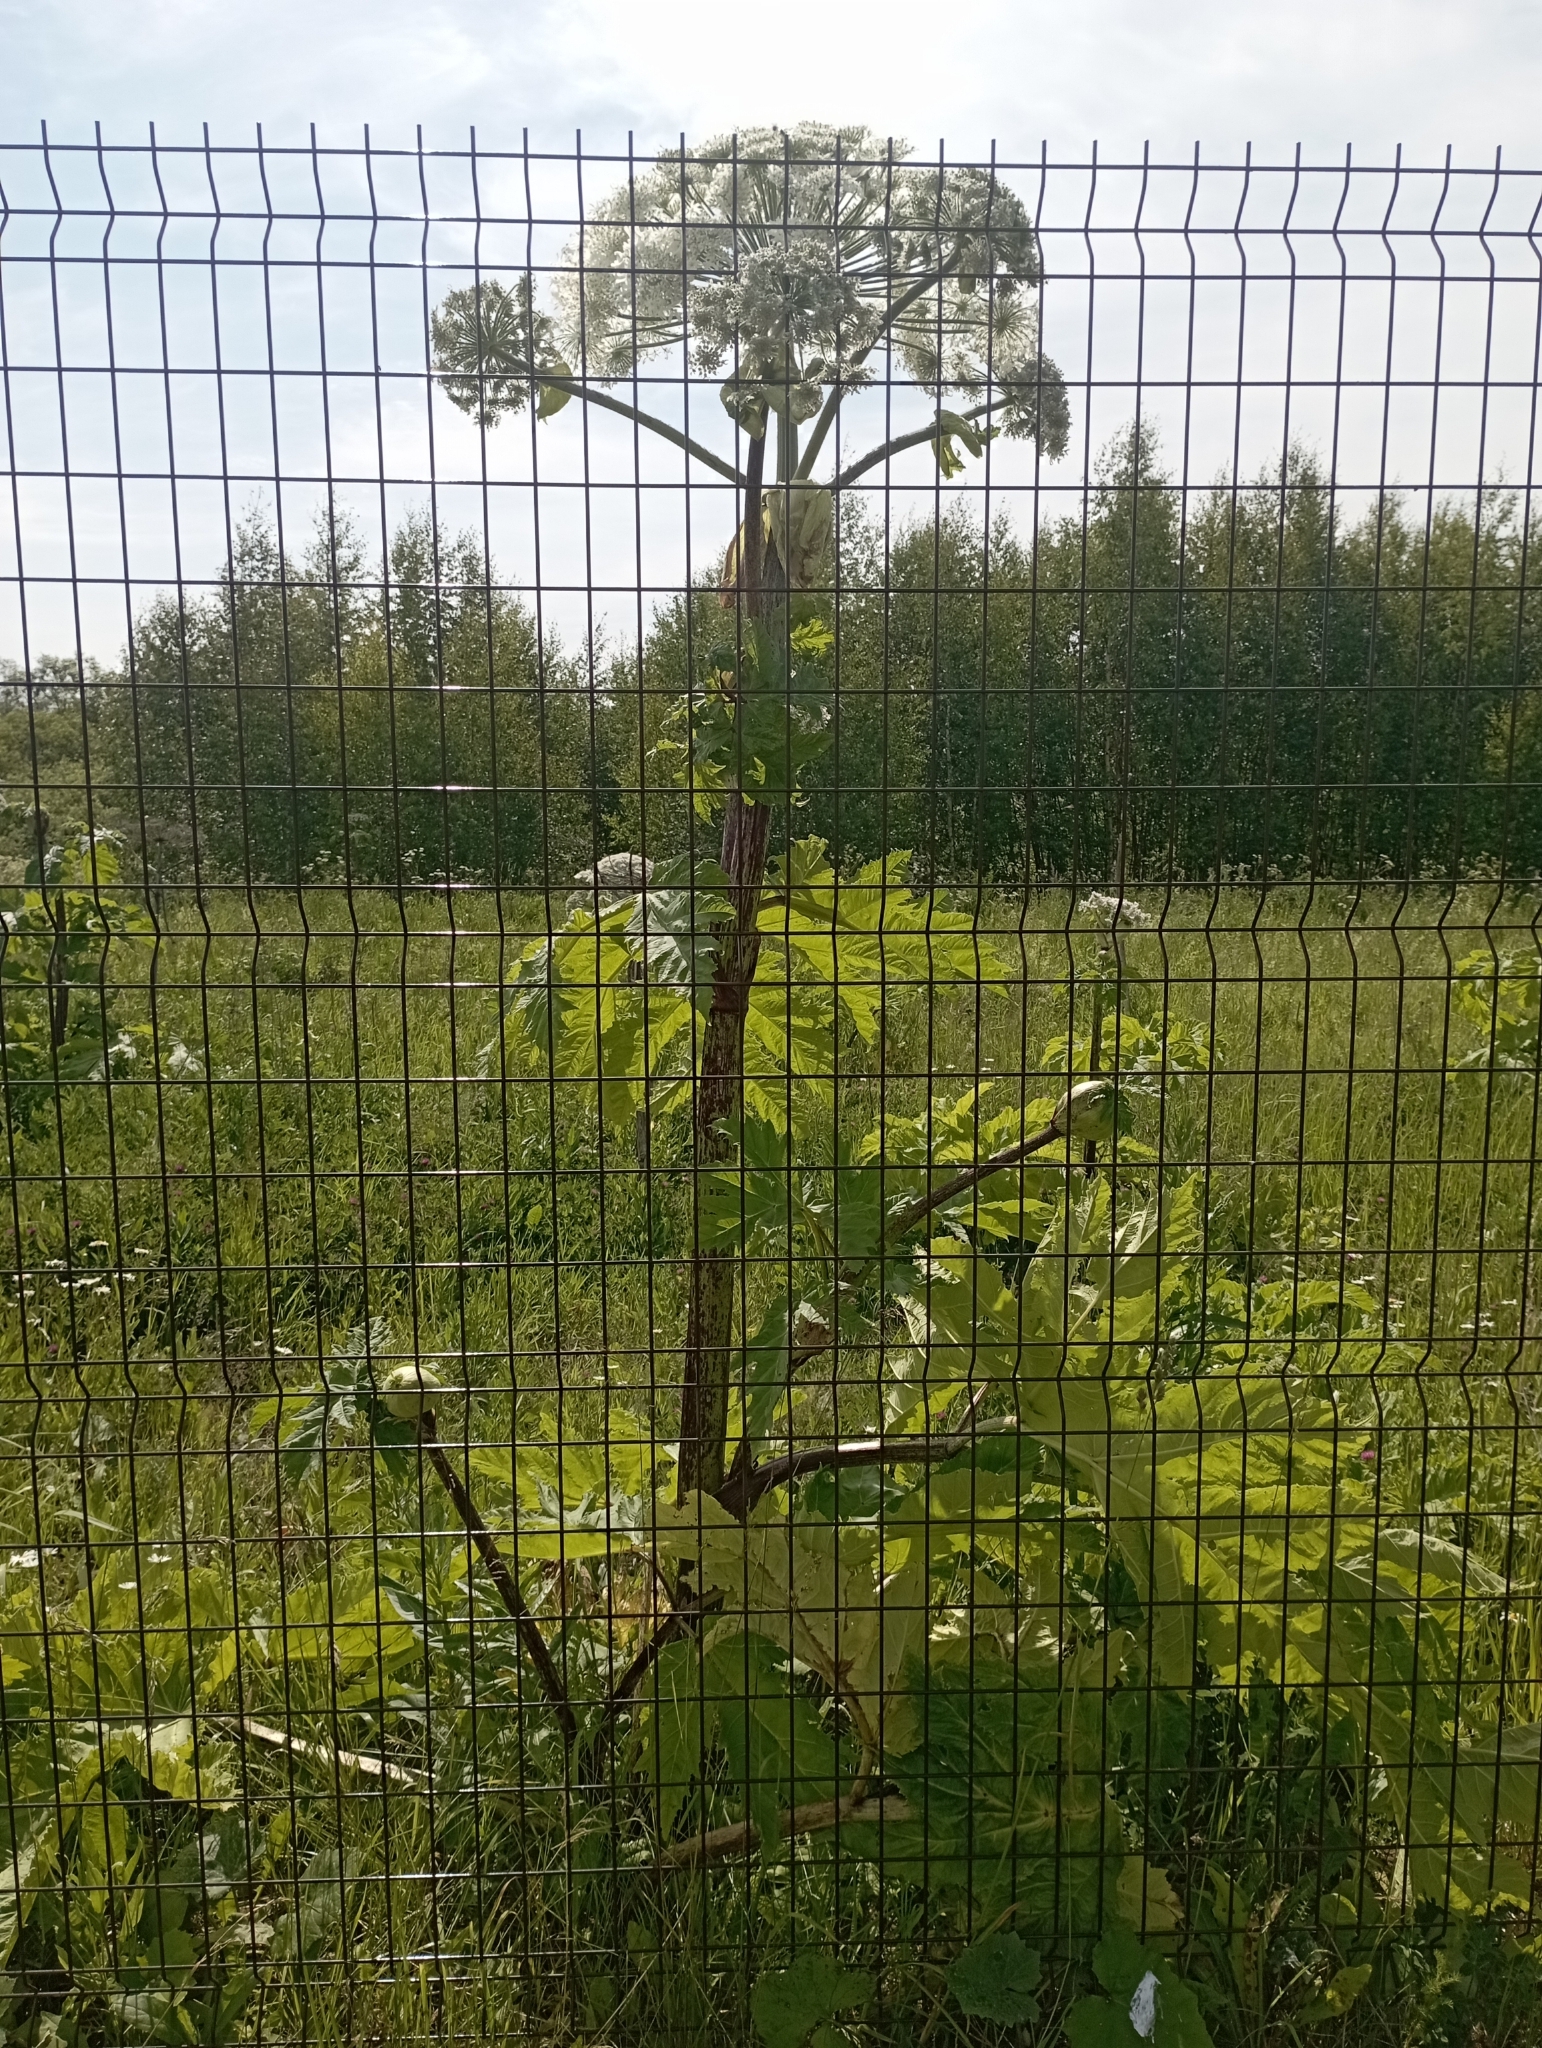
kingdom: Plantae
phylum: Tracheophyta
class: Magnoliopsida
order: Apiales
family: Apiaceae
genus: Heracleum
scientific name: Heracleum sosnowskyi
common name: Sosnowsky's hogweed
